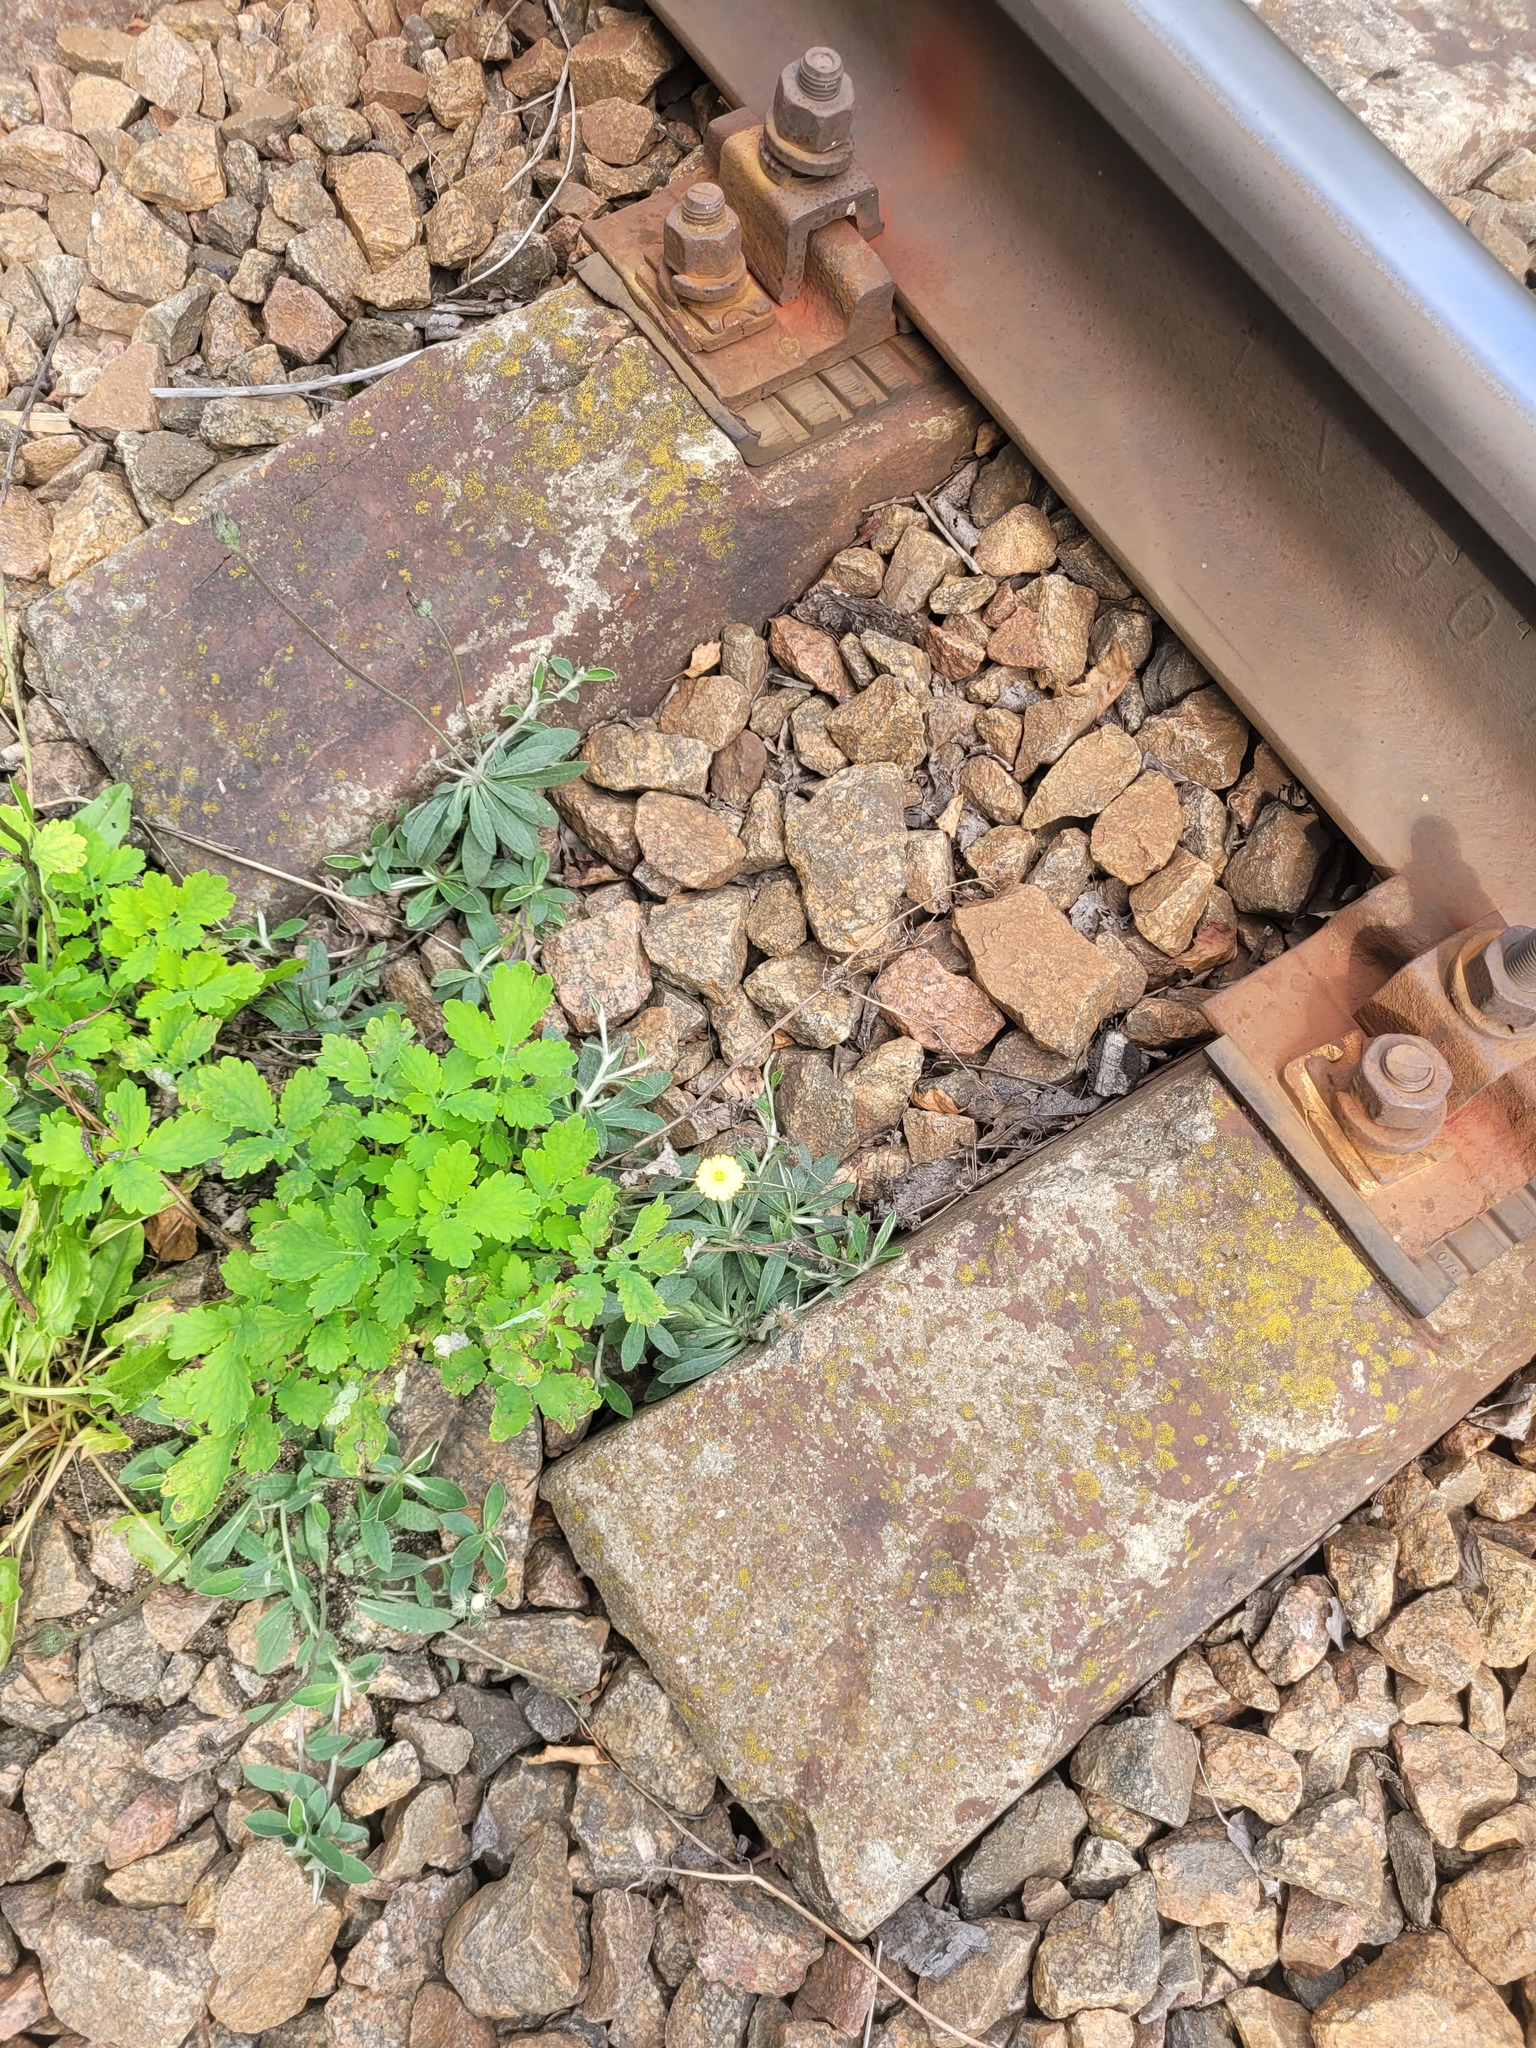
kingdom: Plantae
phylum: Tracheophyta
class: Magnoliopsida
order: Asterales
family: Asteraceae
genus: Pilosella
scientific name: Pilosella officinarum
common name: Mouse-ear hawkweed
